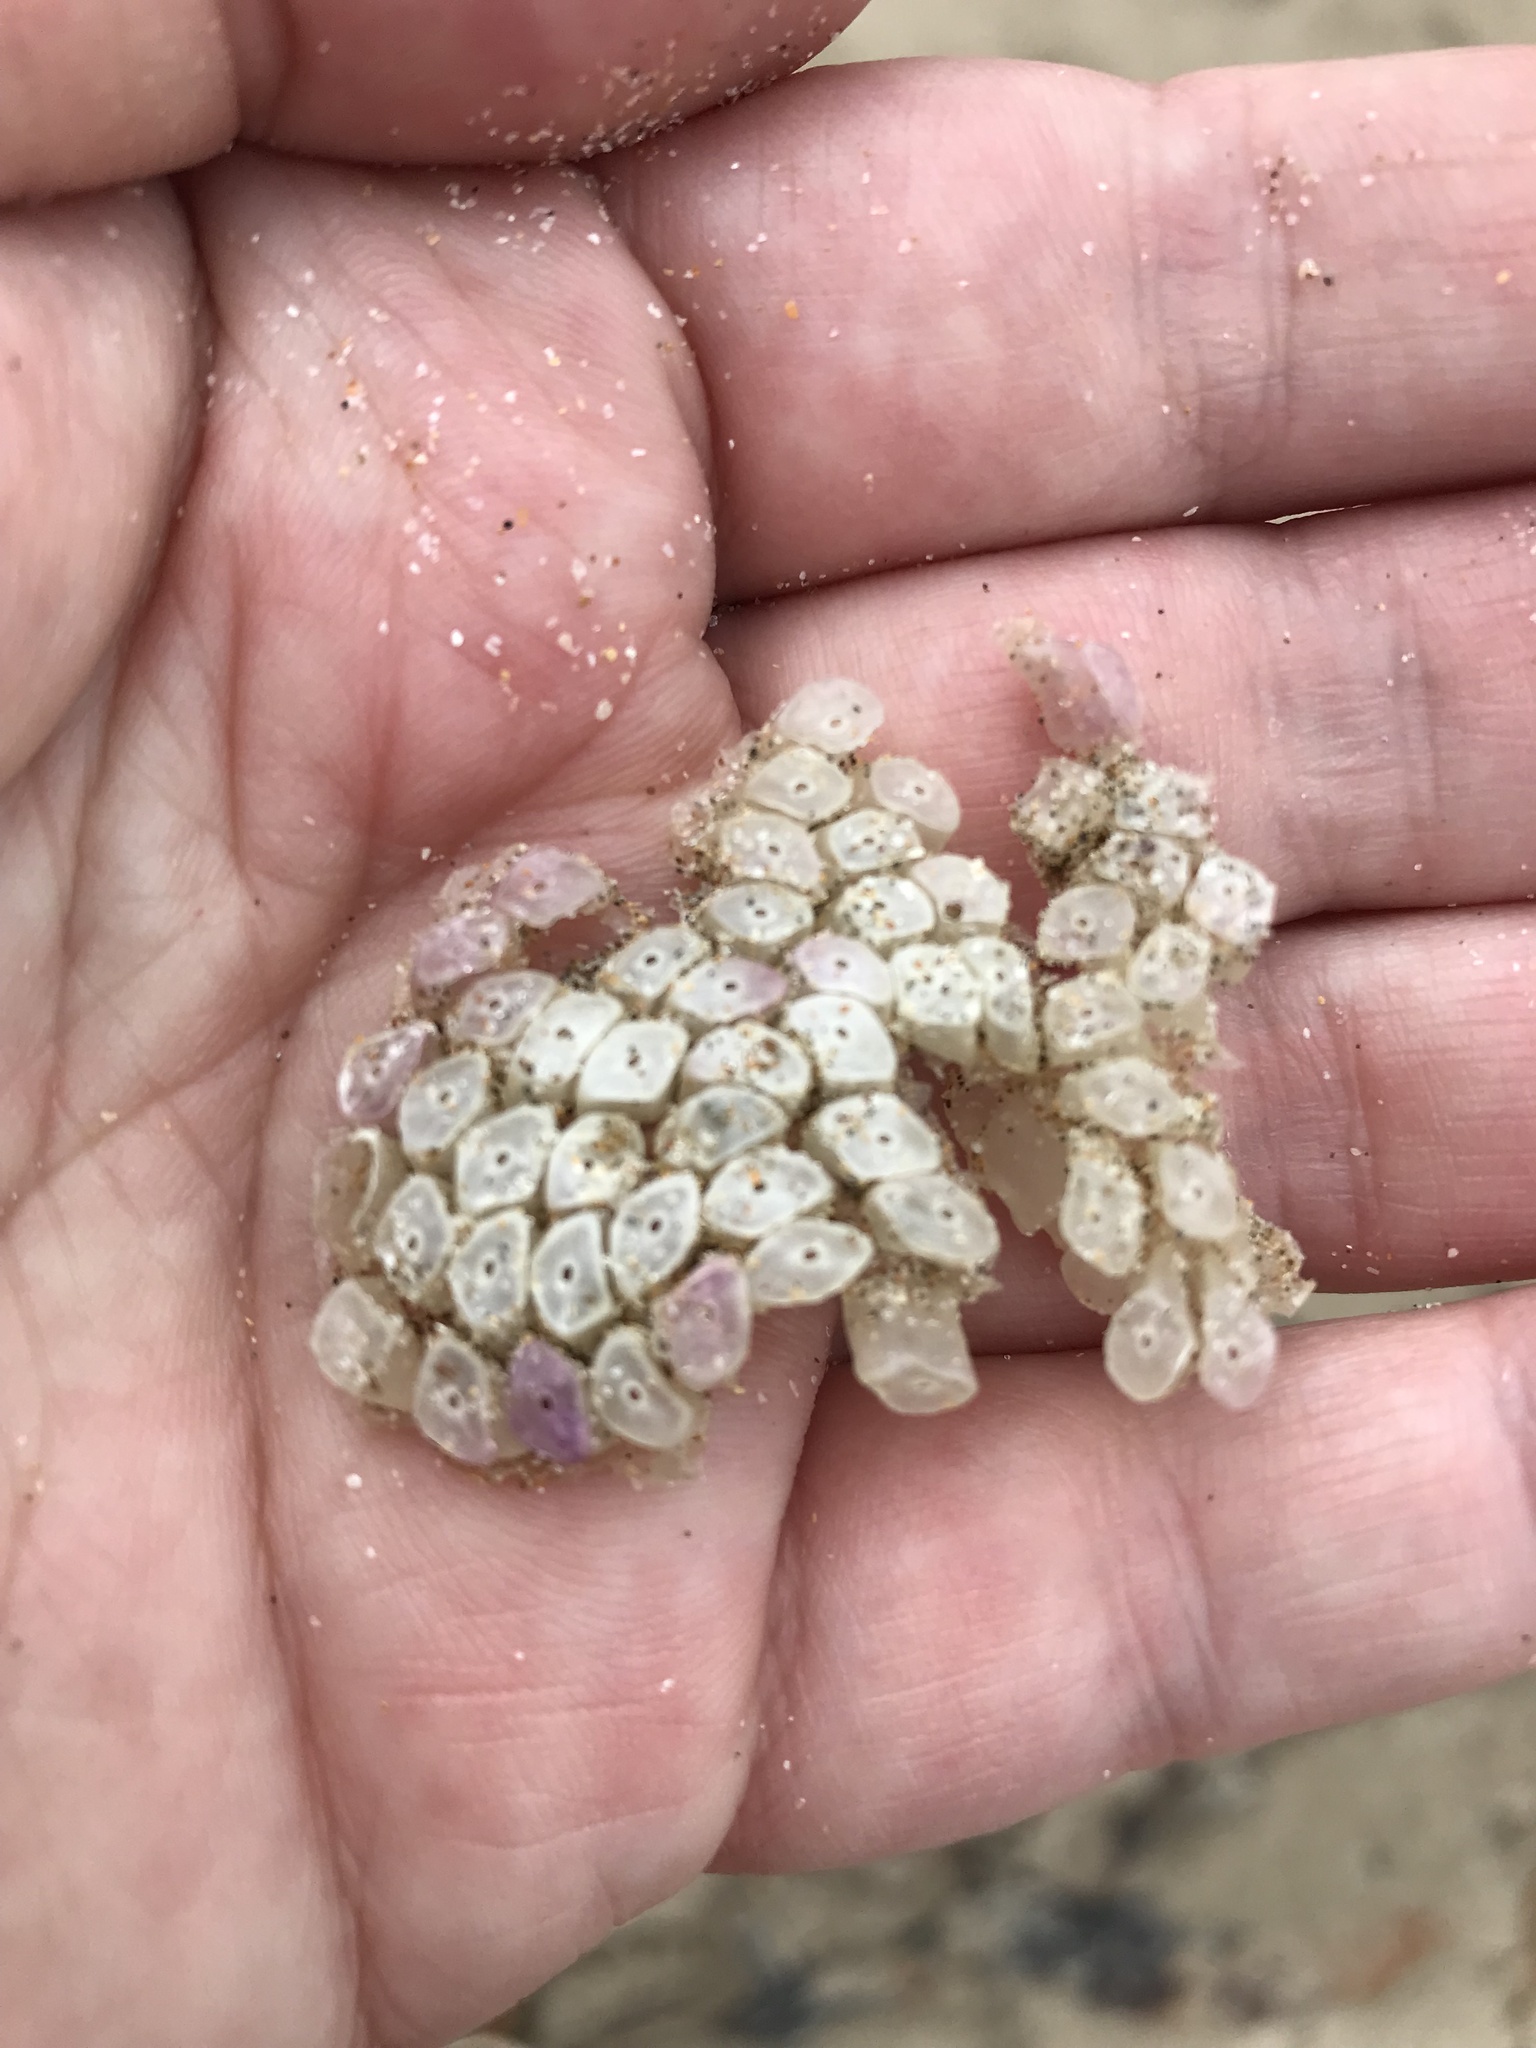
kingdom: Animalia
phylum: Mollusca
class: Gastropoda
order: Neogastropoda
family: Muricidae
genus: Dicathais
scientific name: Dicathais orbita
